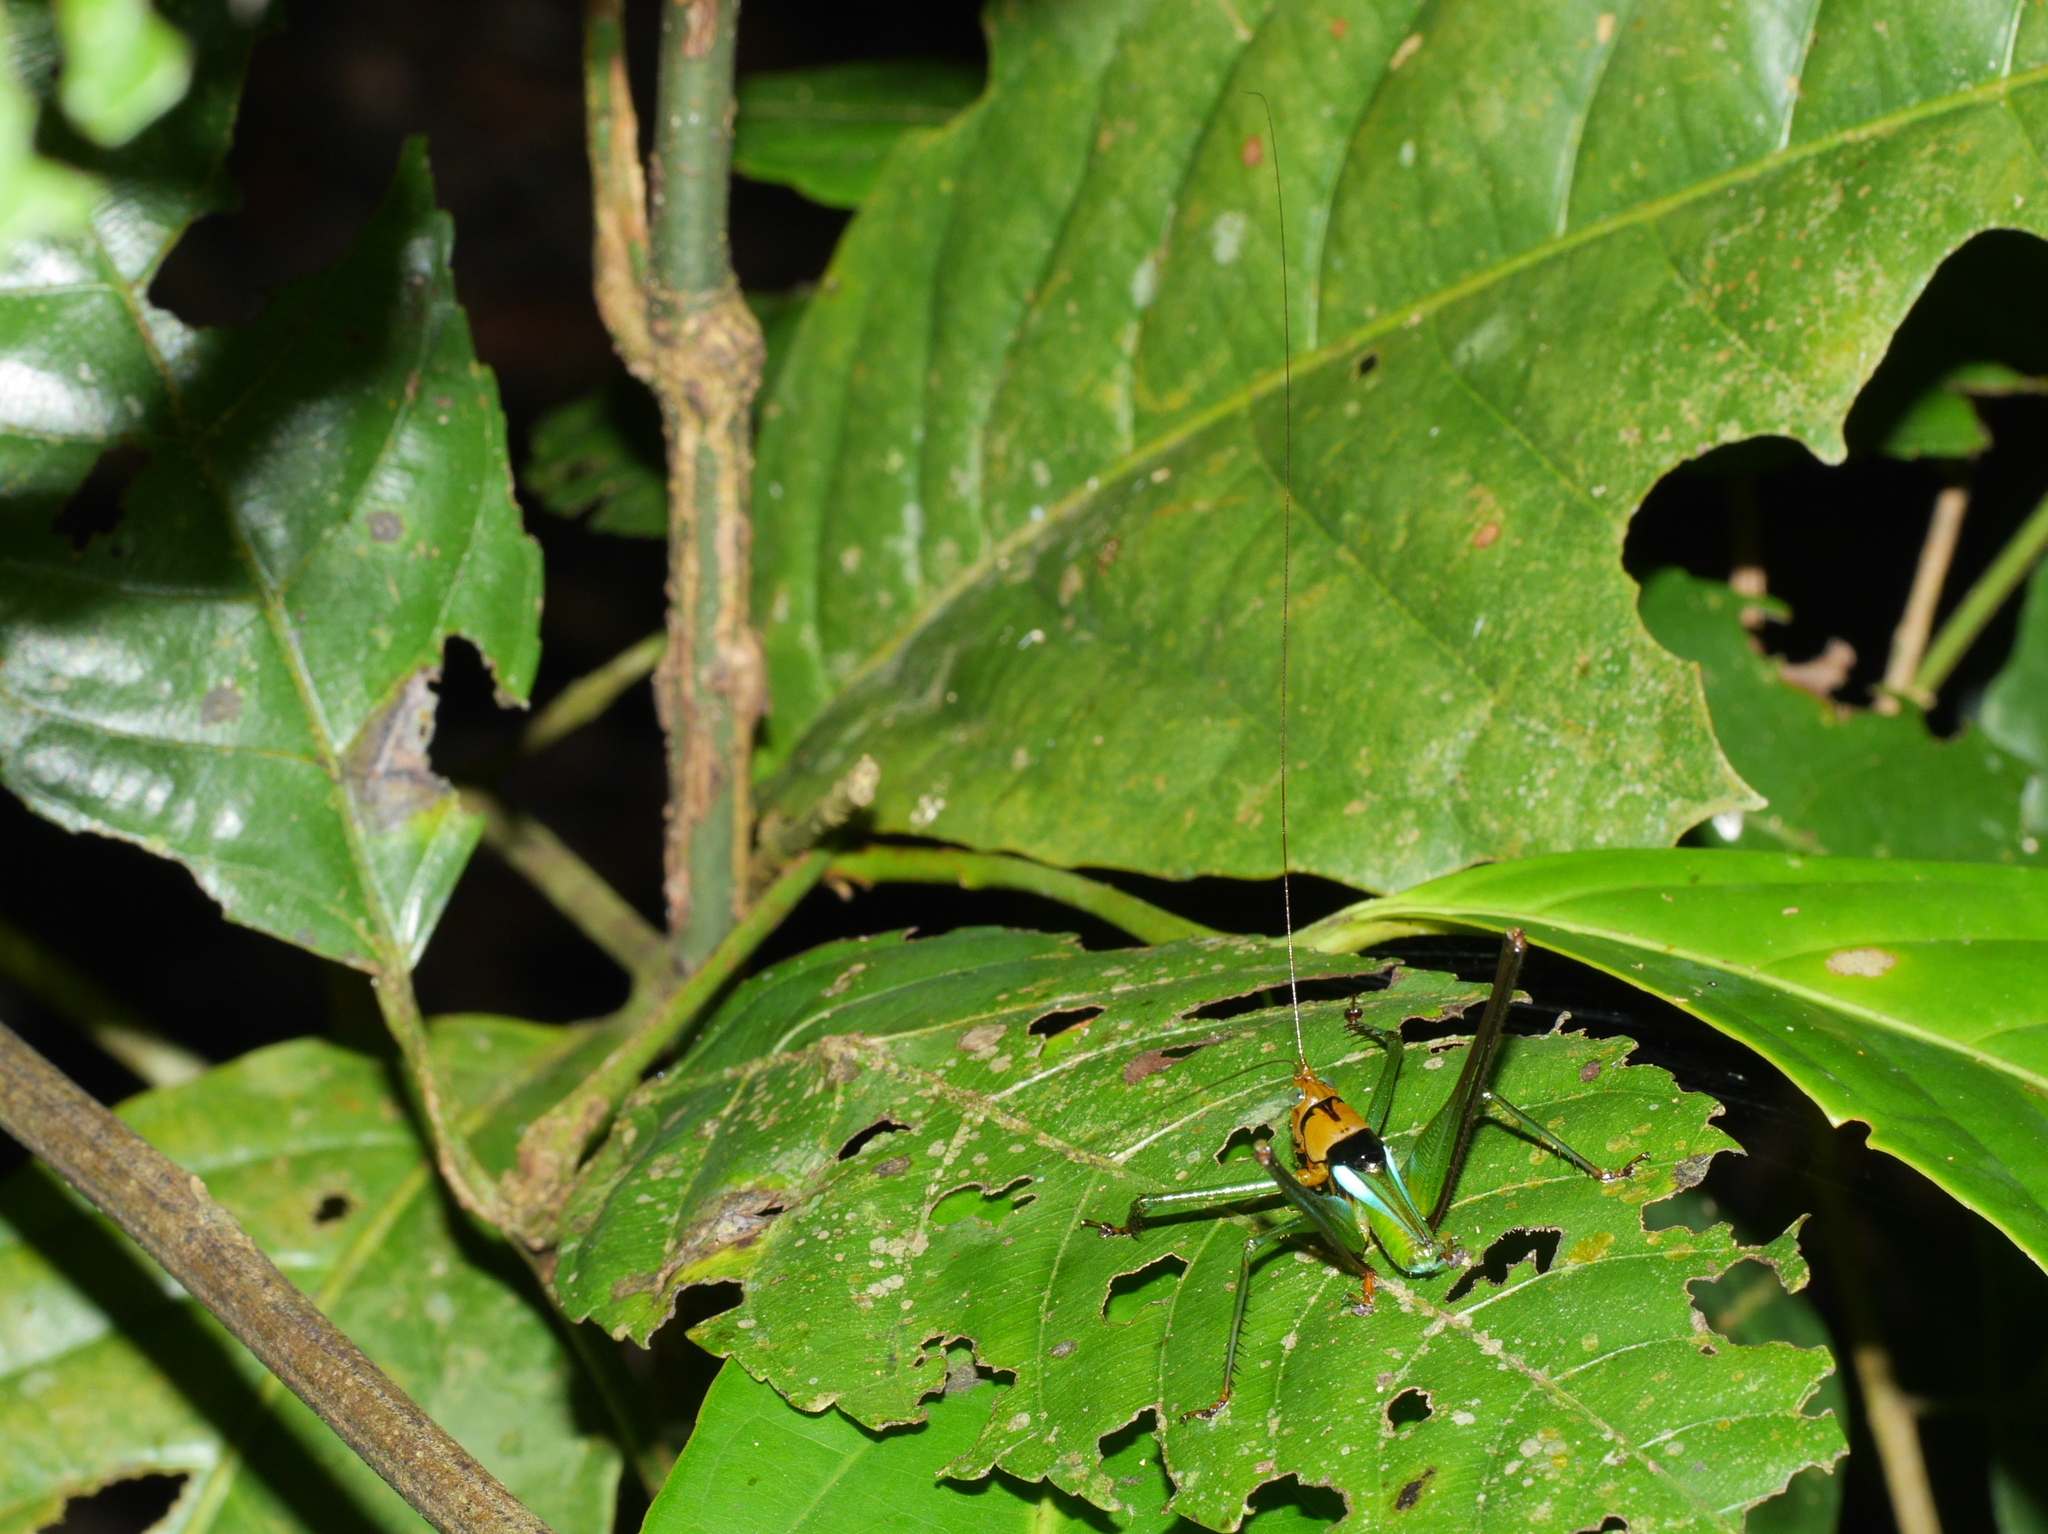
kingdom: Animalia
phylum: Arthropoda
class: Insecta
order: Orthoptera
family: Tettigoniidae
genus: Glenophisis
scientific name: Glenophisis pretiosa
